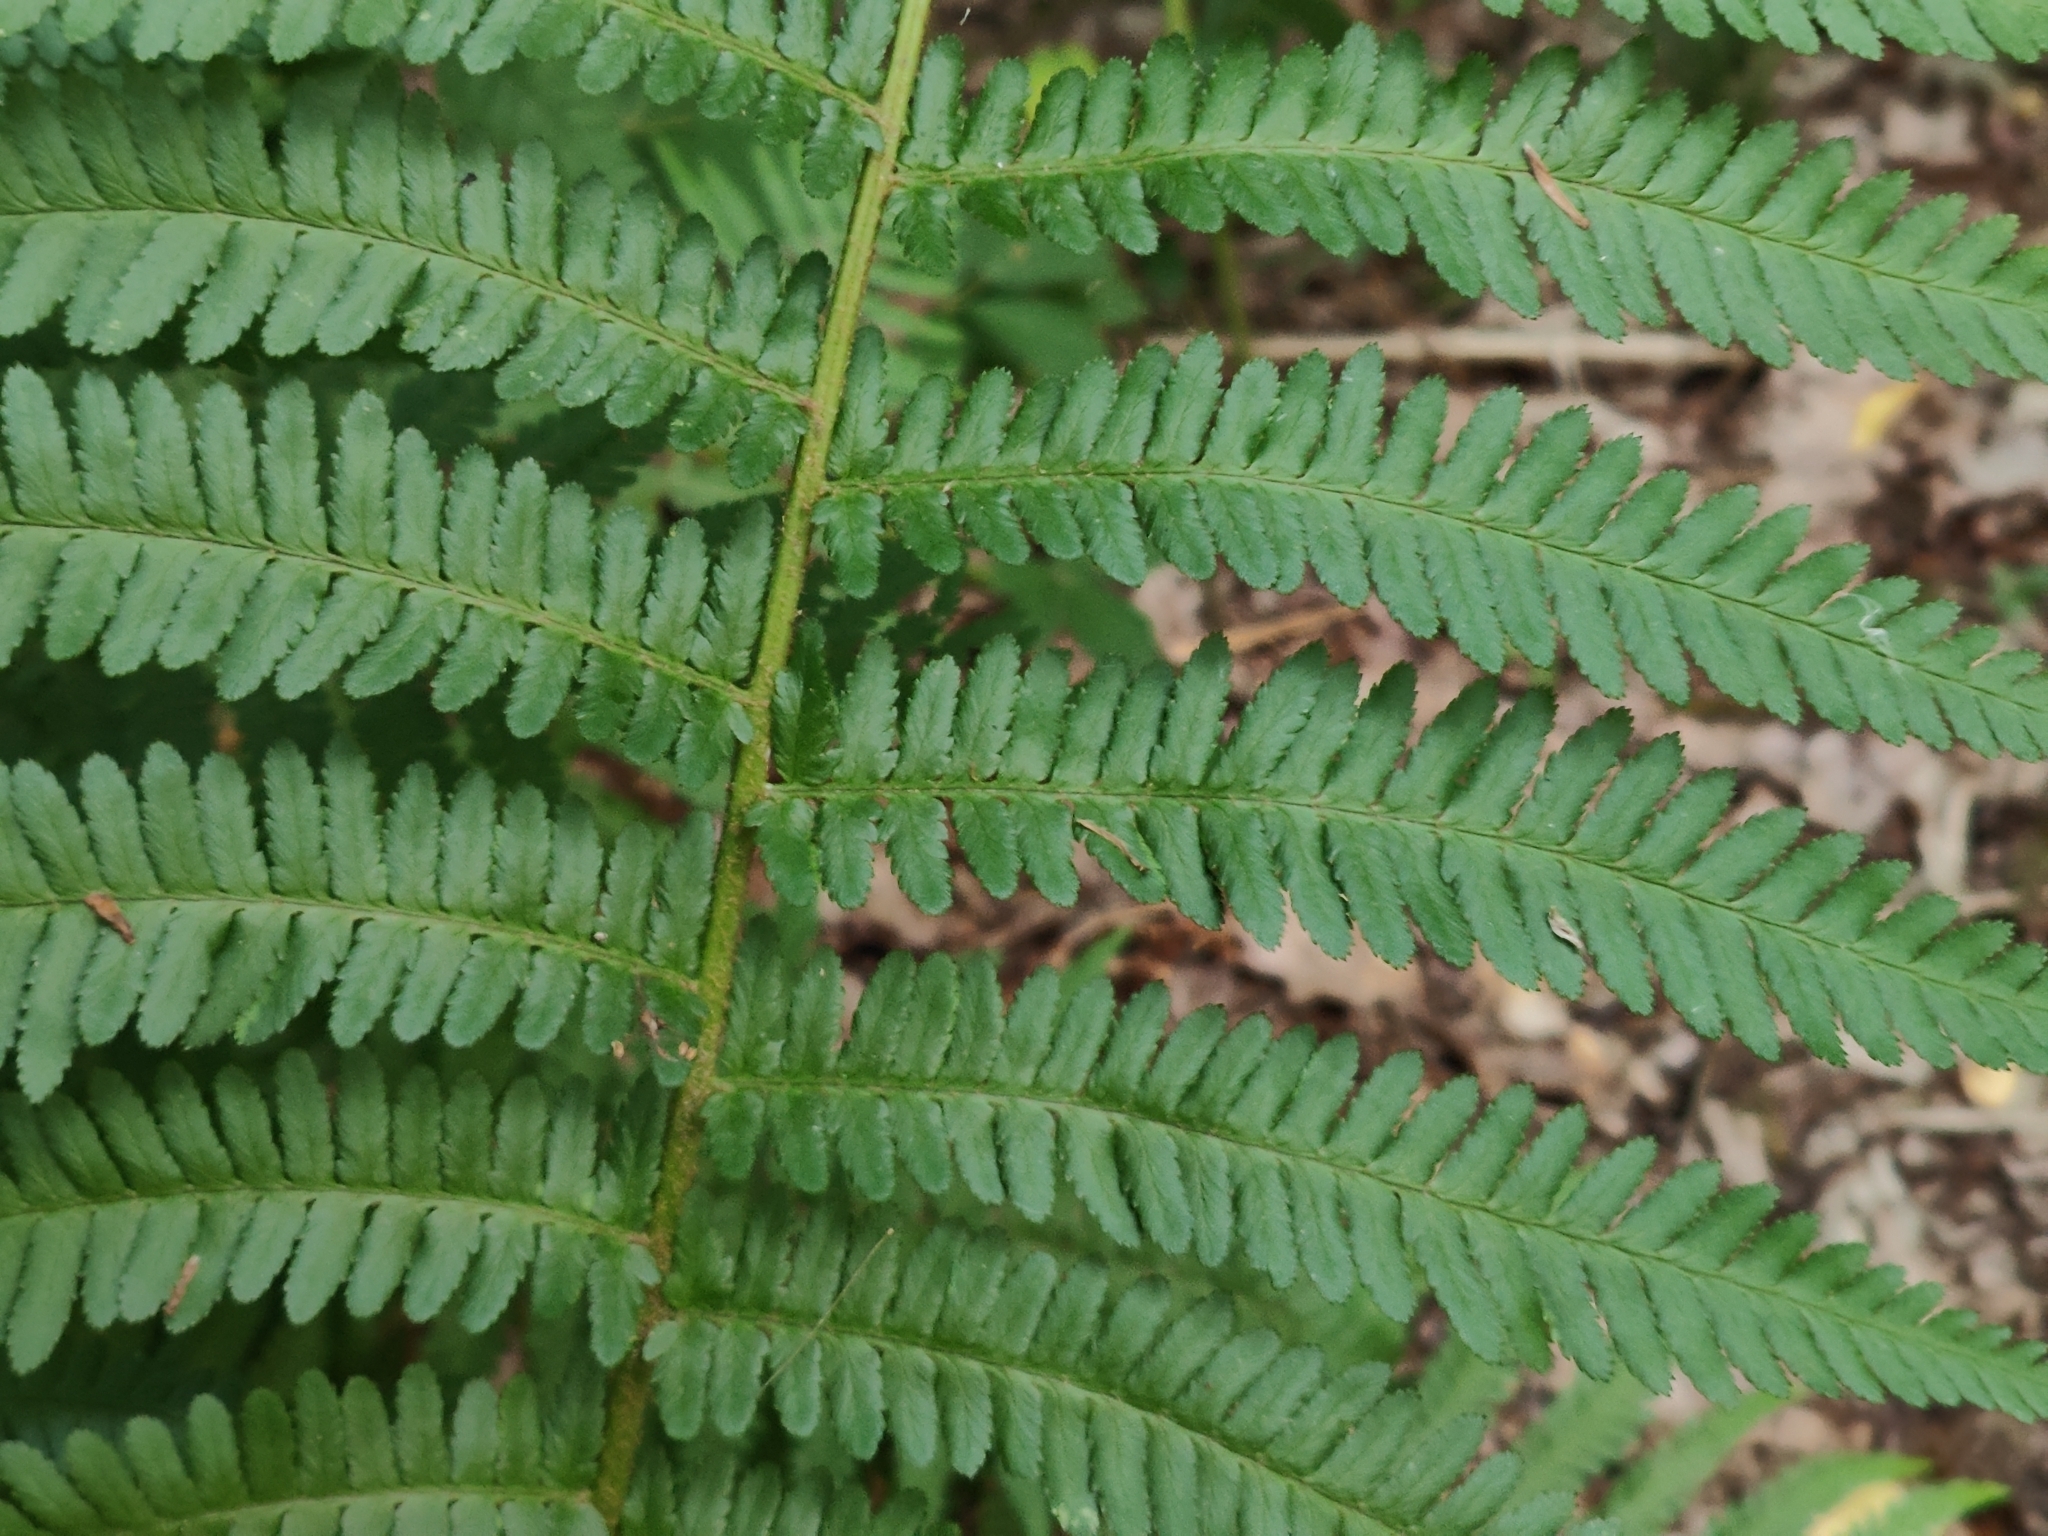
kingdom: Plantae
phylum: Tracheophyta
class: Polypodiopsida
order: Polypodiales
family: Dryopteridaceae
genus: Dryopteris
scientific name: Dryopteris filix-mas
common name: Male fern
